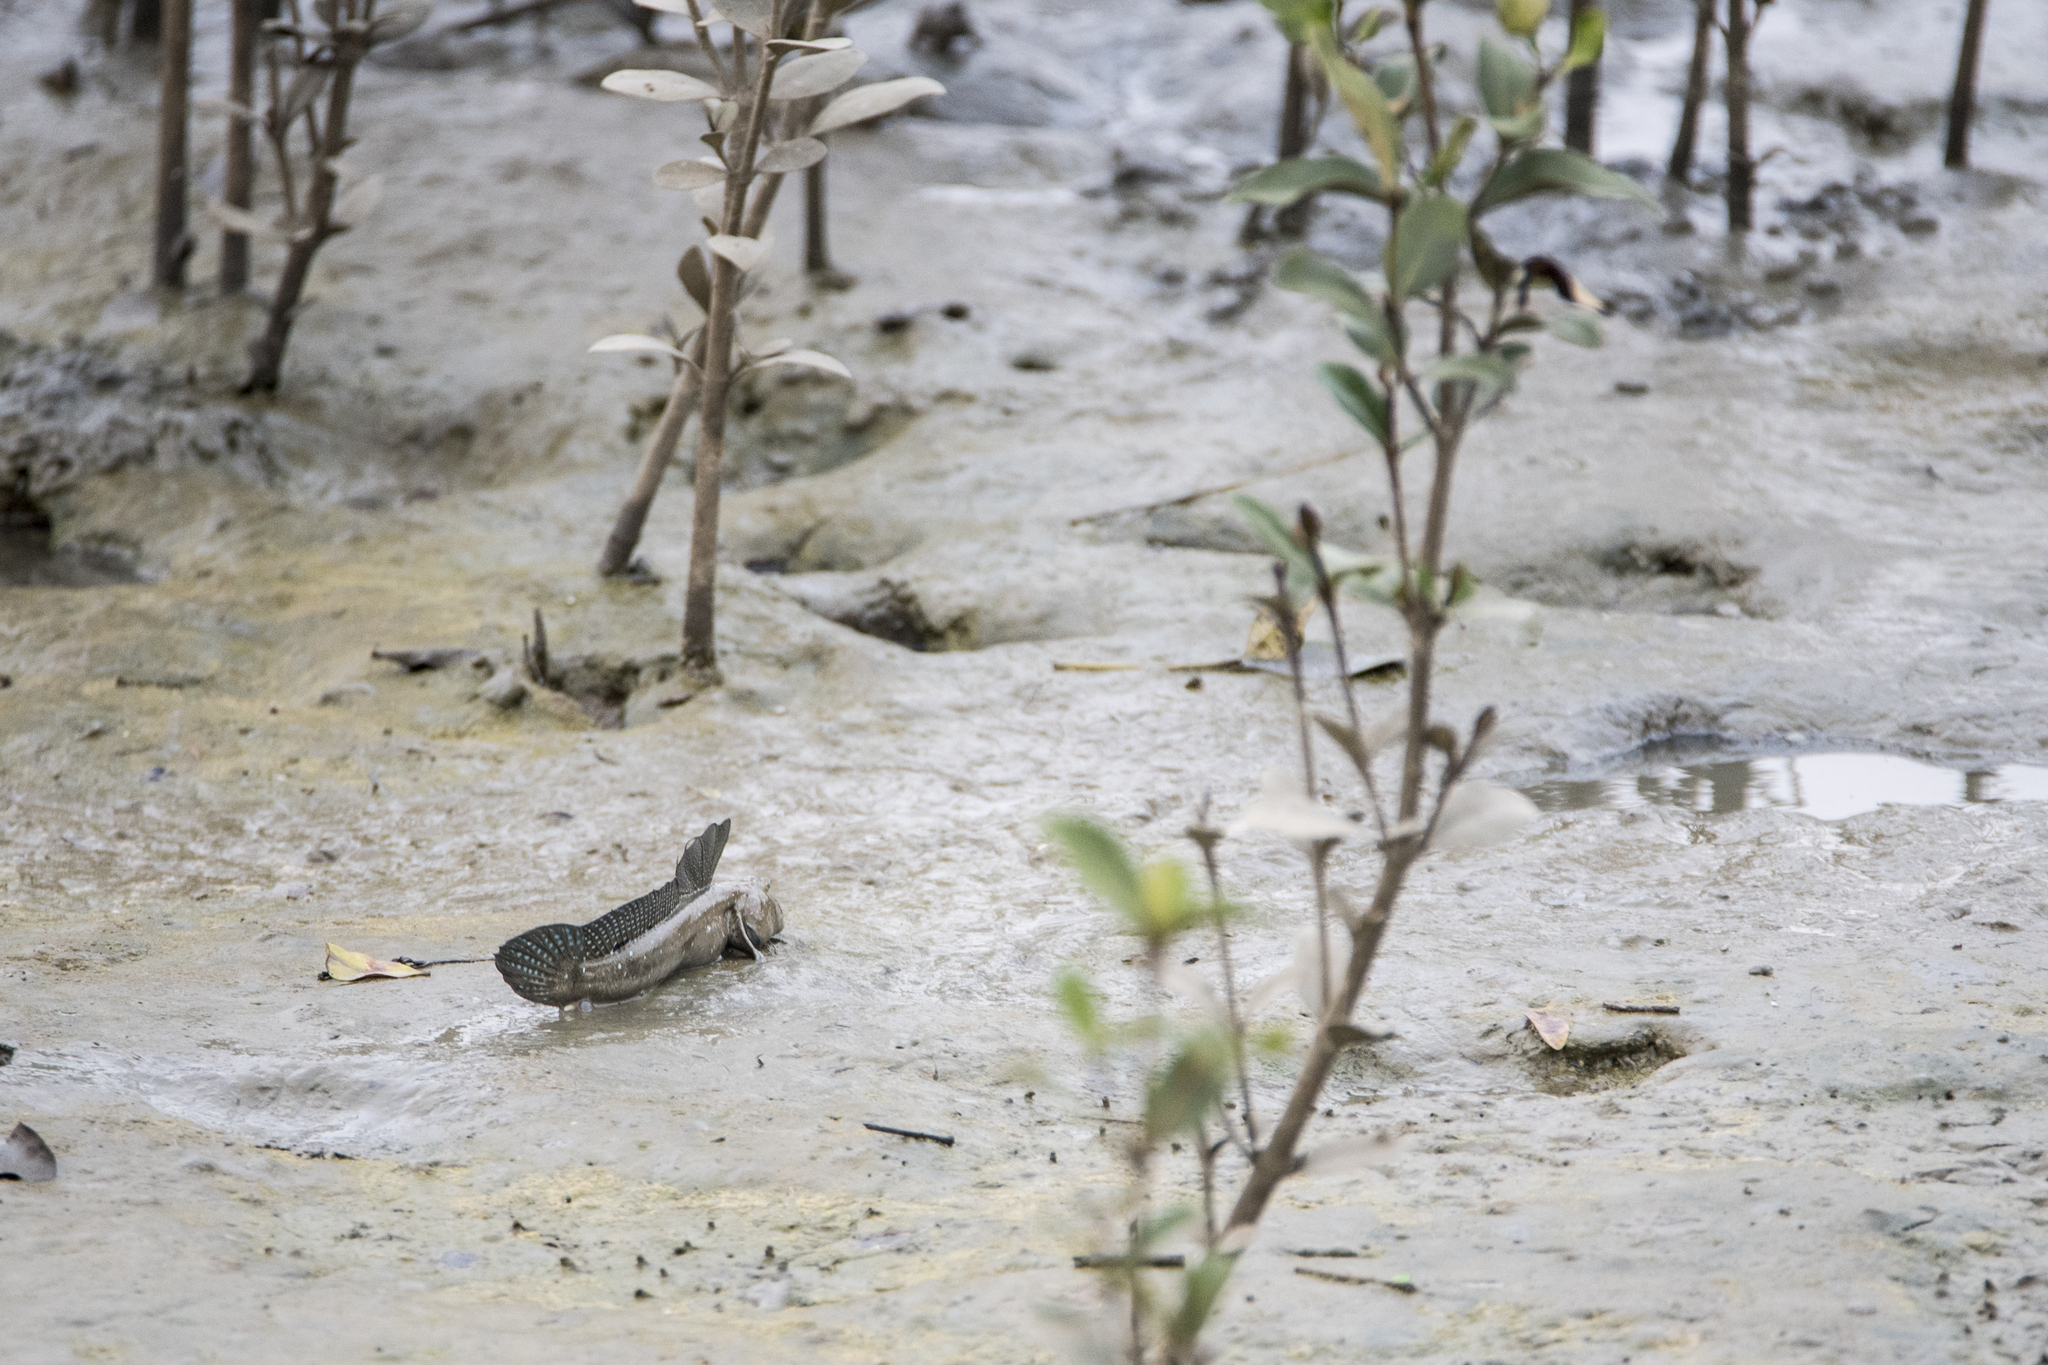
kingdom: Animalia
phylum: Chordata
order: Perciformes
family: Gobiidae
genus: Boleophthalmus
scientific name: Boleophthalmus pectinirostris
